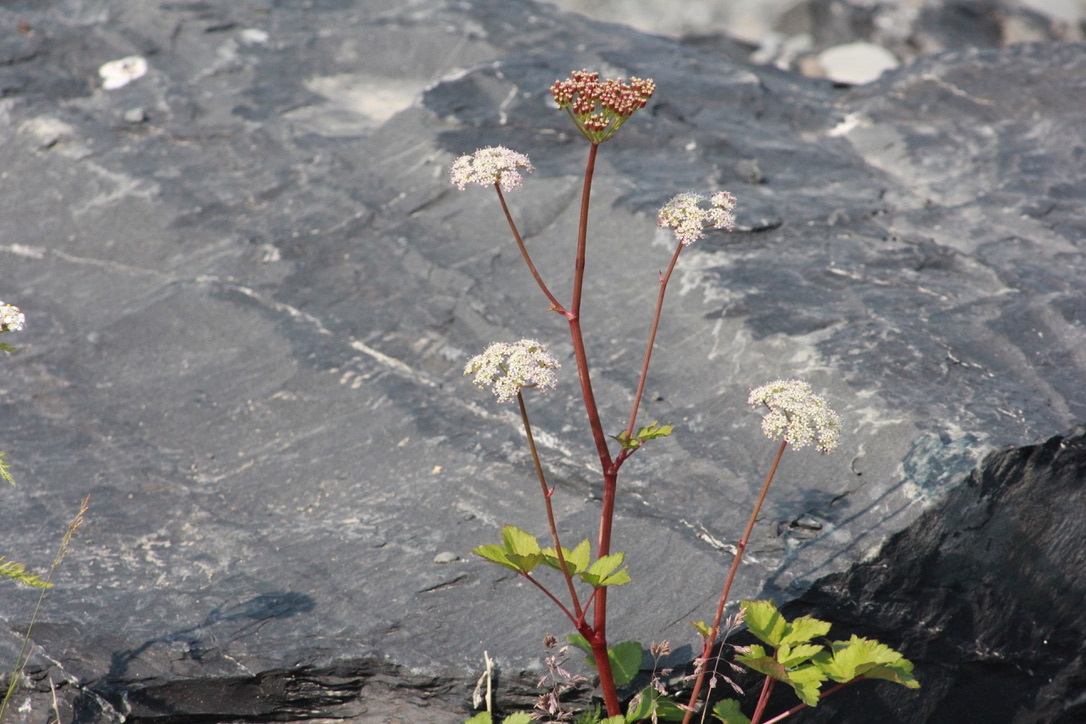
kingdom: Plantae
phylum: Tracheophyta
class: Magnoliopsida
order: Apiales
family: Apiaceae
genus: Ligusticum
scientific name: Ligusticum scothicum
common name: Beach lovage
